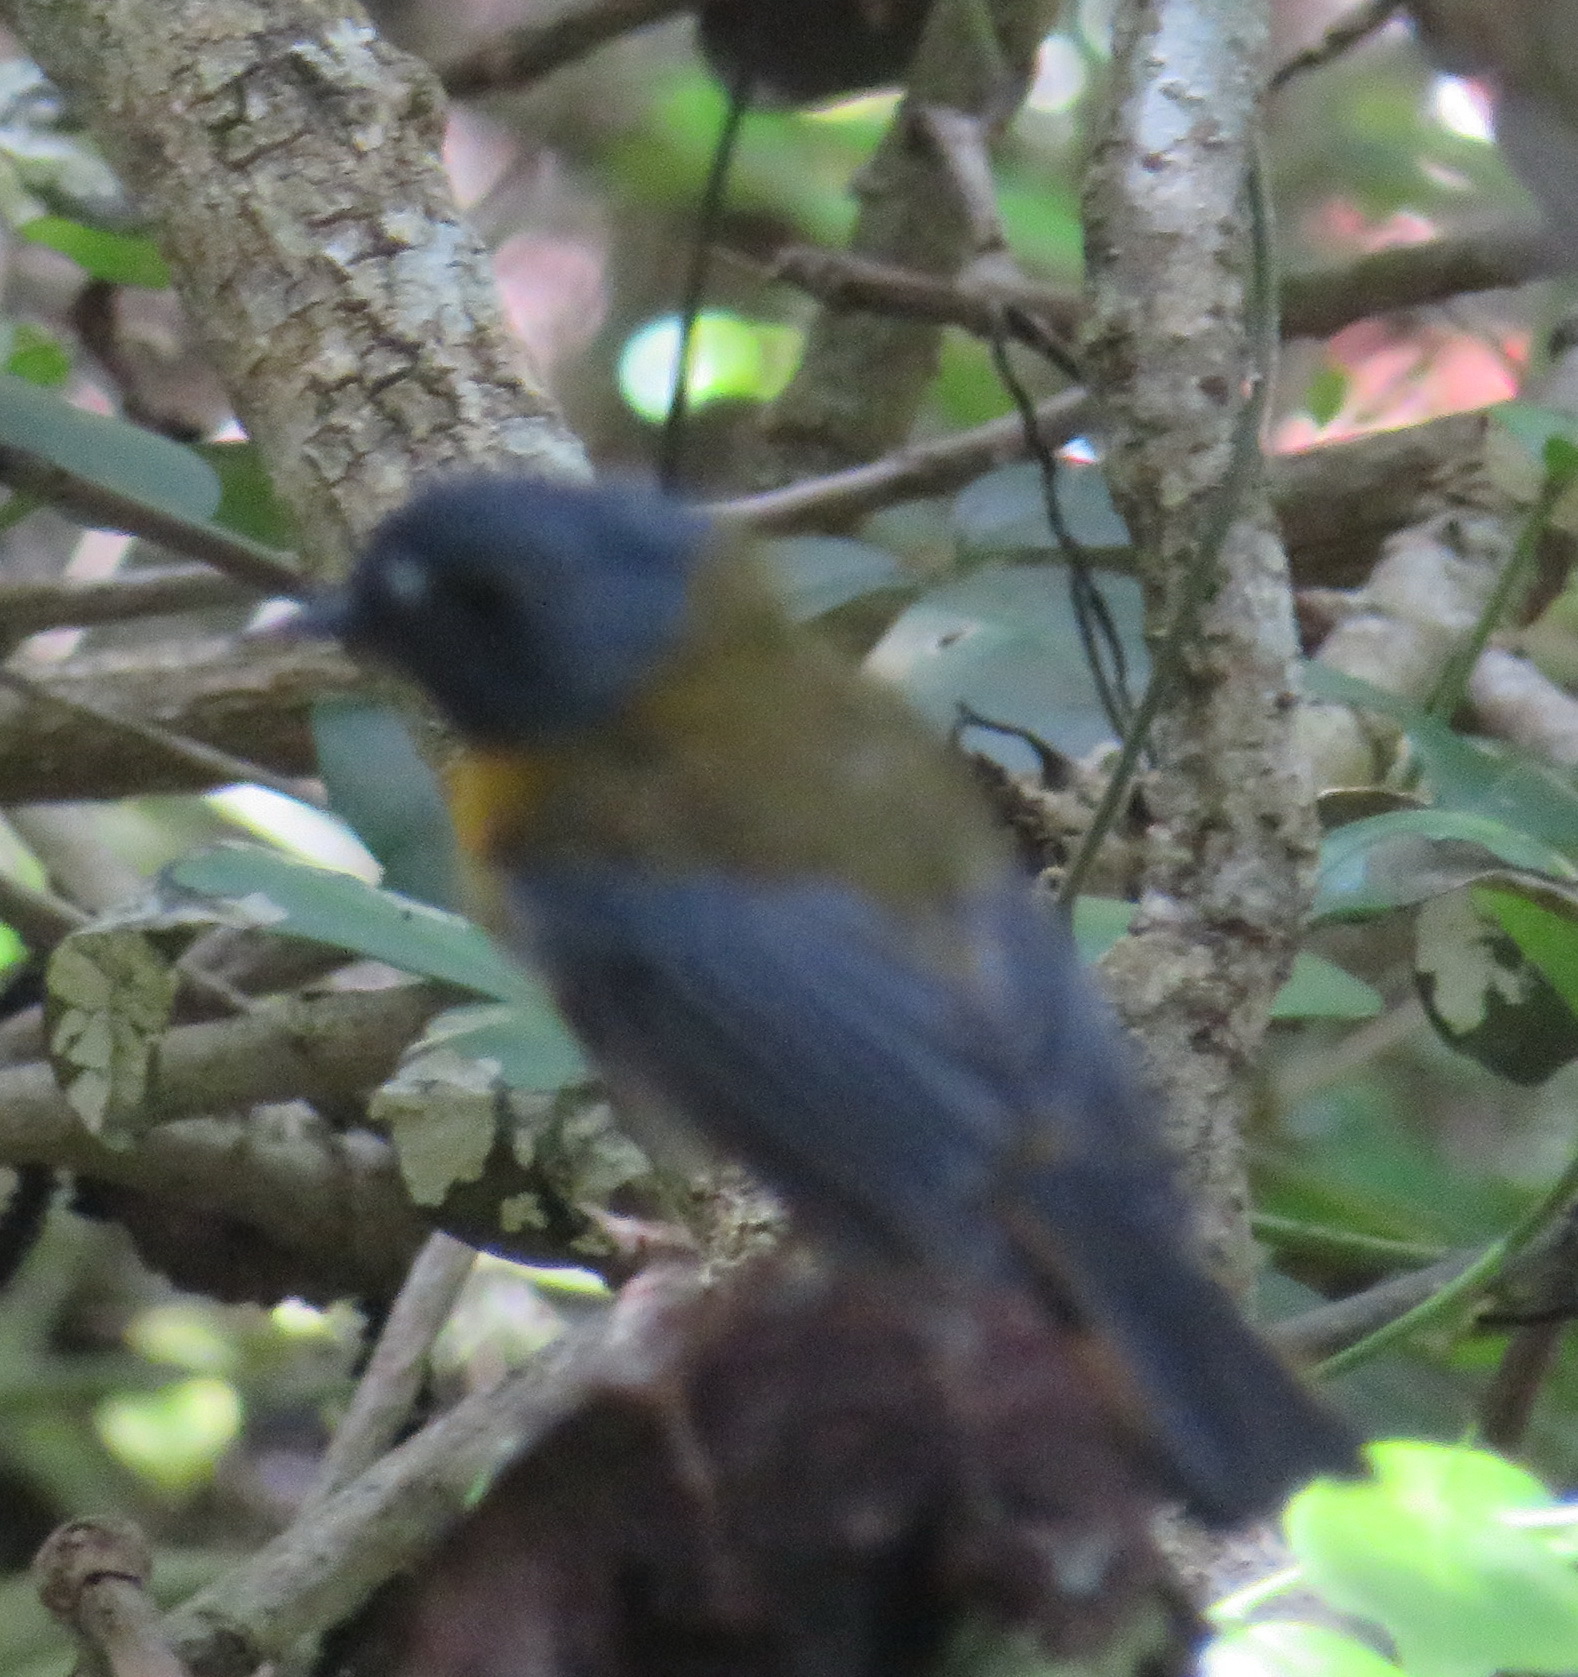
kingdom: Animalia
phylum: Chordata
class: Aves
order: Passeriformes
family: Muscicapidae
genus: Pogonocichla
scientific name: Pogonocichla stellata
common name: White-starred robin
